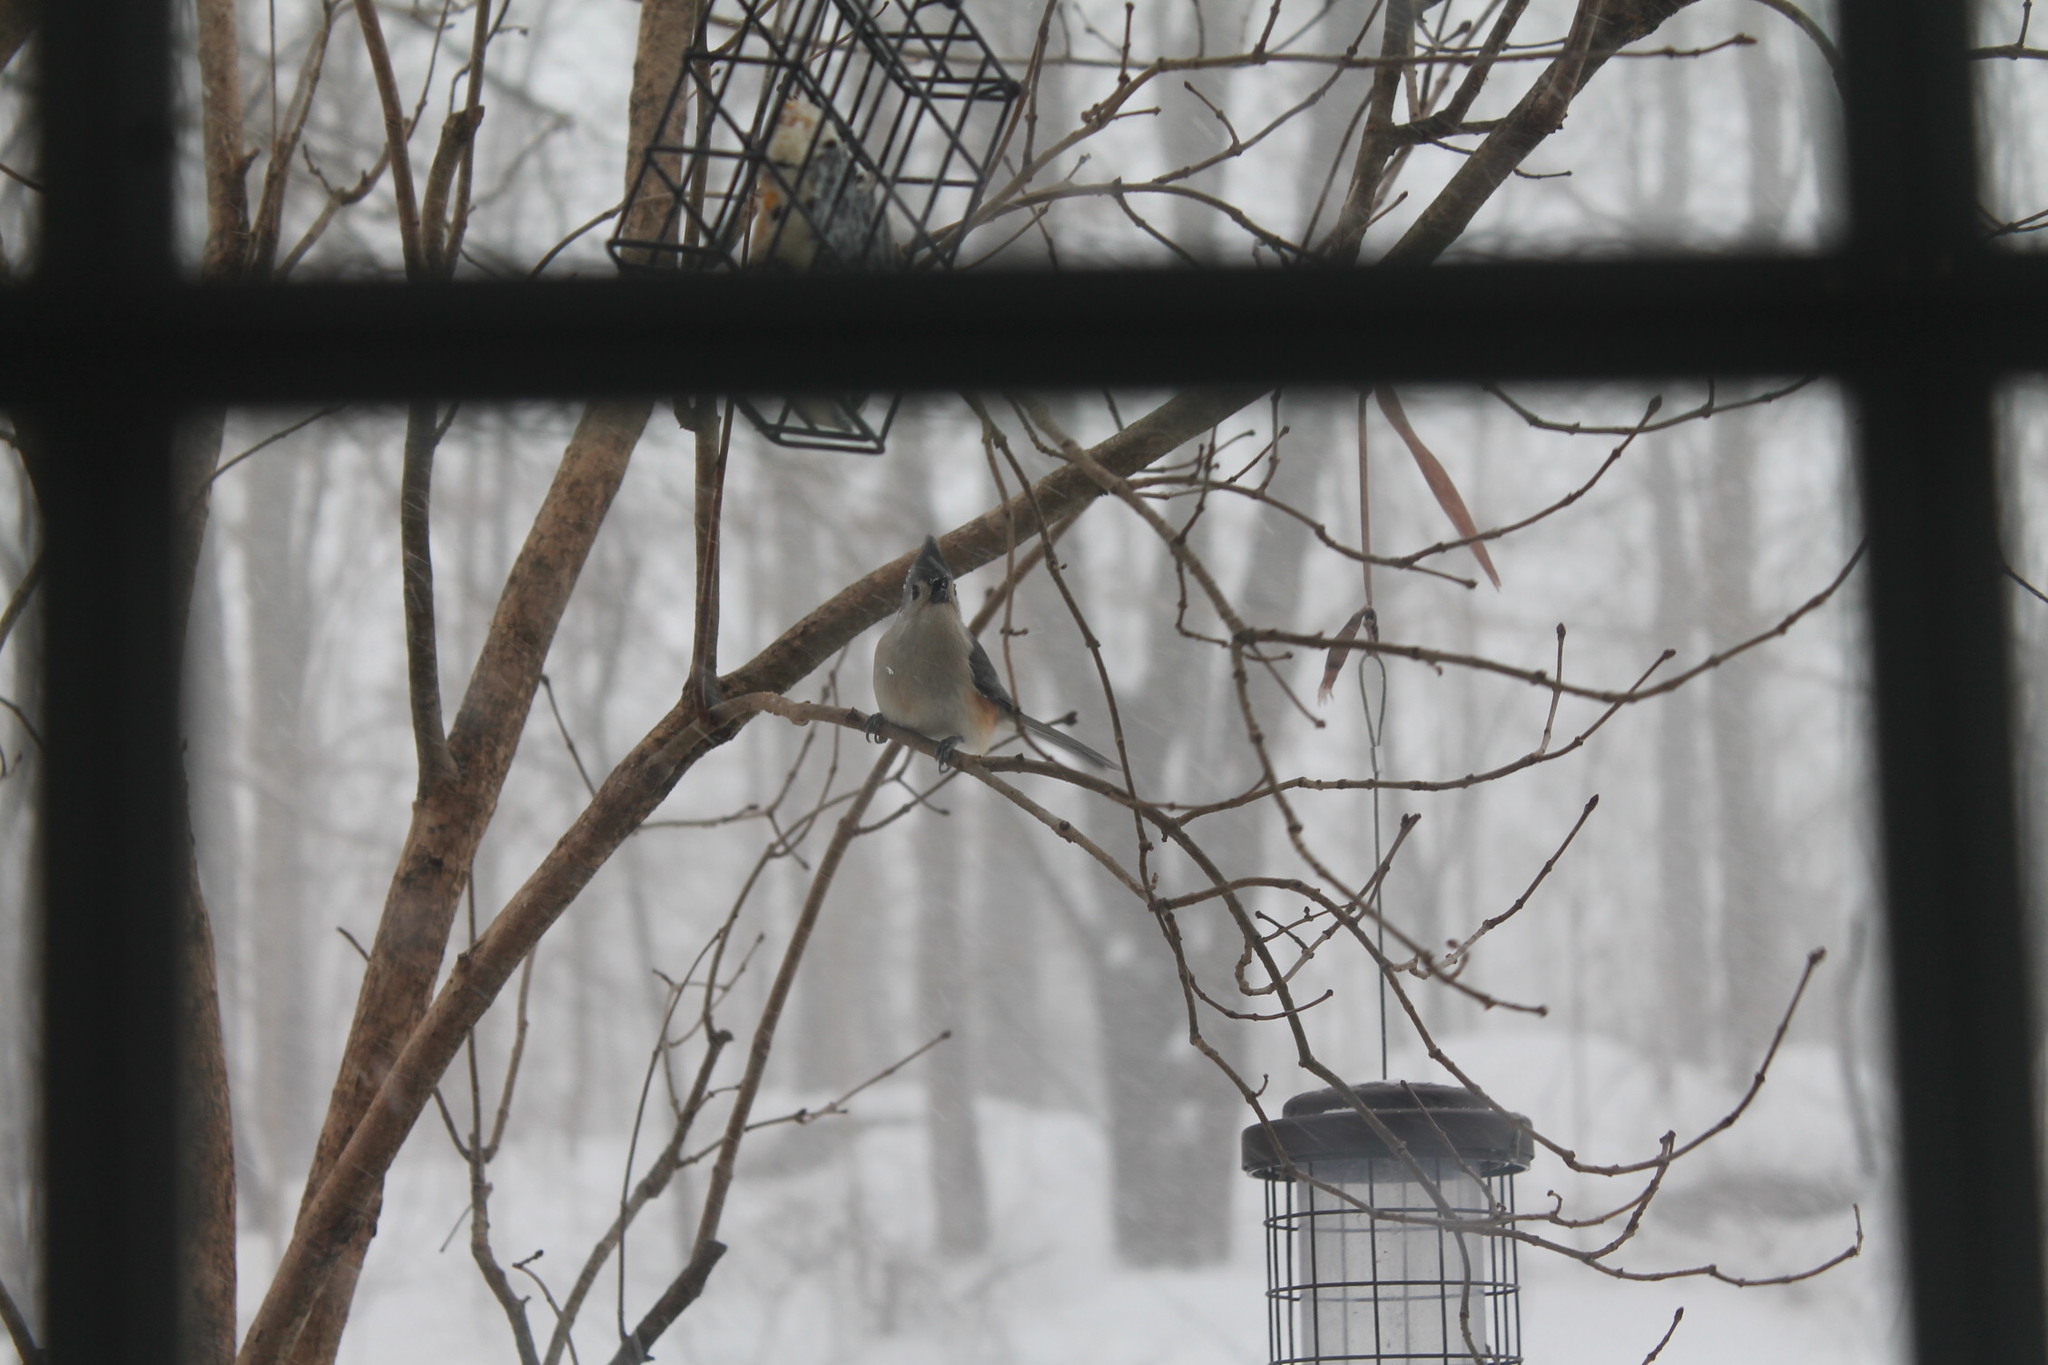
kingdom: Animalia
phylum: Chordata
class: Aves
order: Passeriformes
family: Paridae
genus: Baeolophus
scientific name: Baeolophus bicolor
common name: Tufted titmouse
